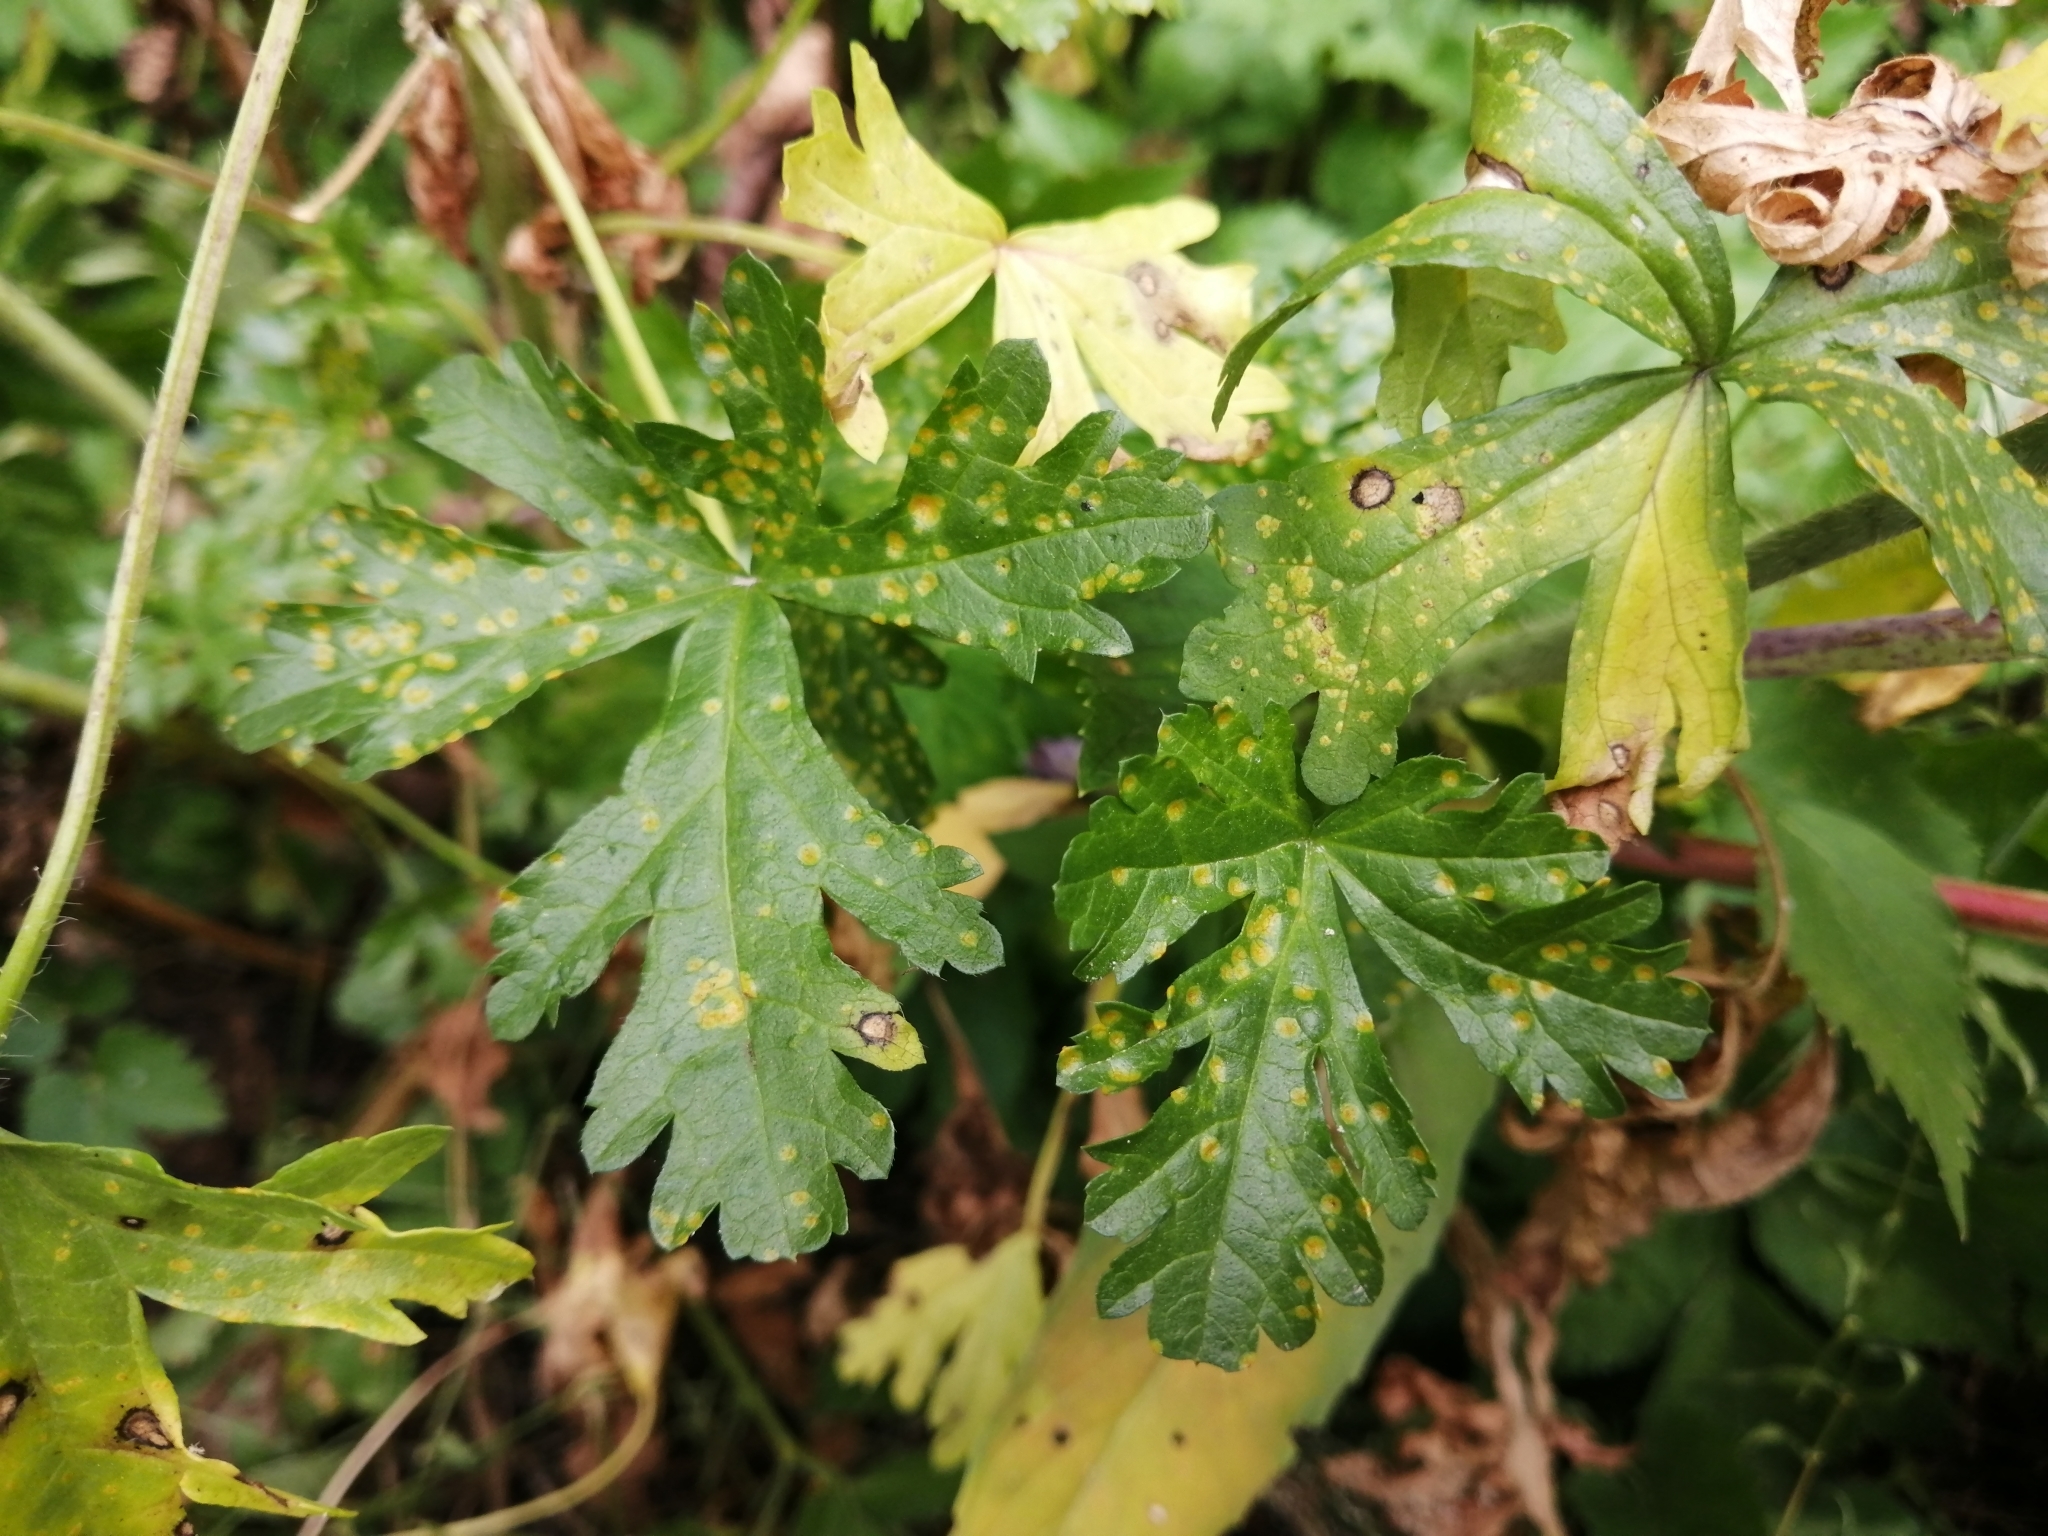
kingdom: Plantae
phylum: Tracheophyta
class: Magnoliopsida
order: Malvales
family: Malvaceae
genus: Malva
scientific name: Malva moschata
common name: Musk mallow
